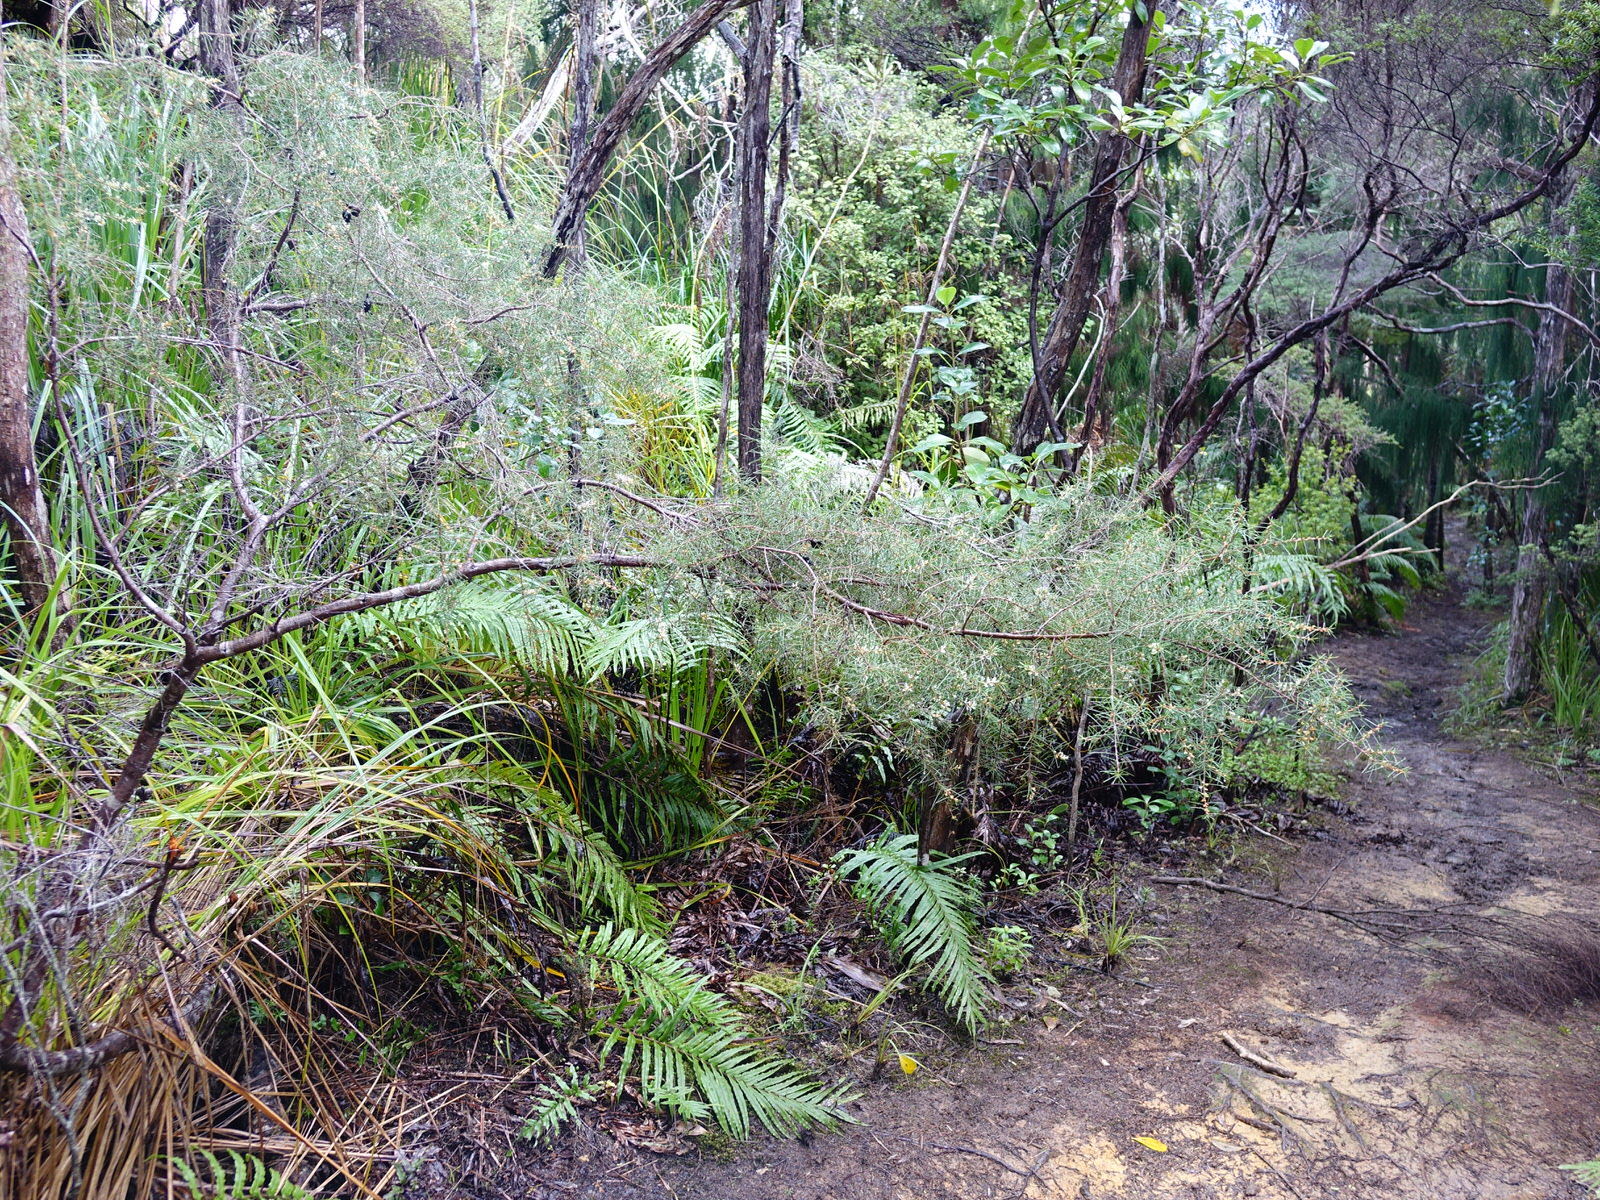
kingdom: Plantae
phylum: Tracheophyta
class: Magnoliopsida
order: Proteales
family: Proteaceae
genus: Hakea
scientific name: Hakea sericea
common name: Needle bush
